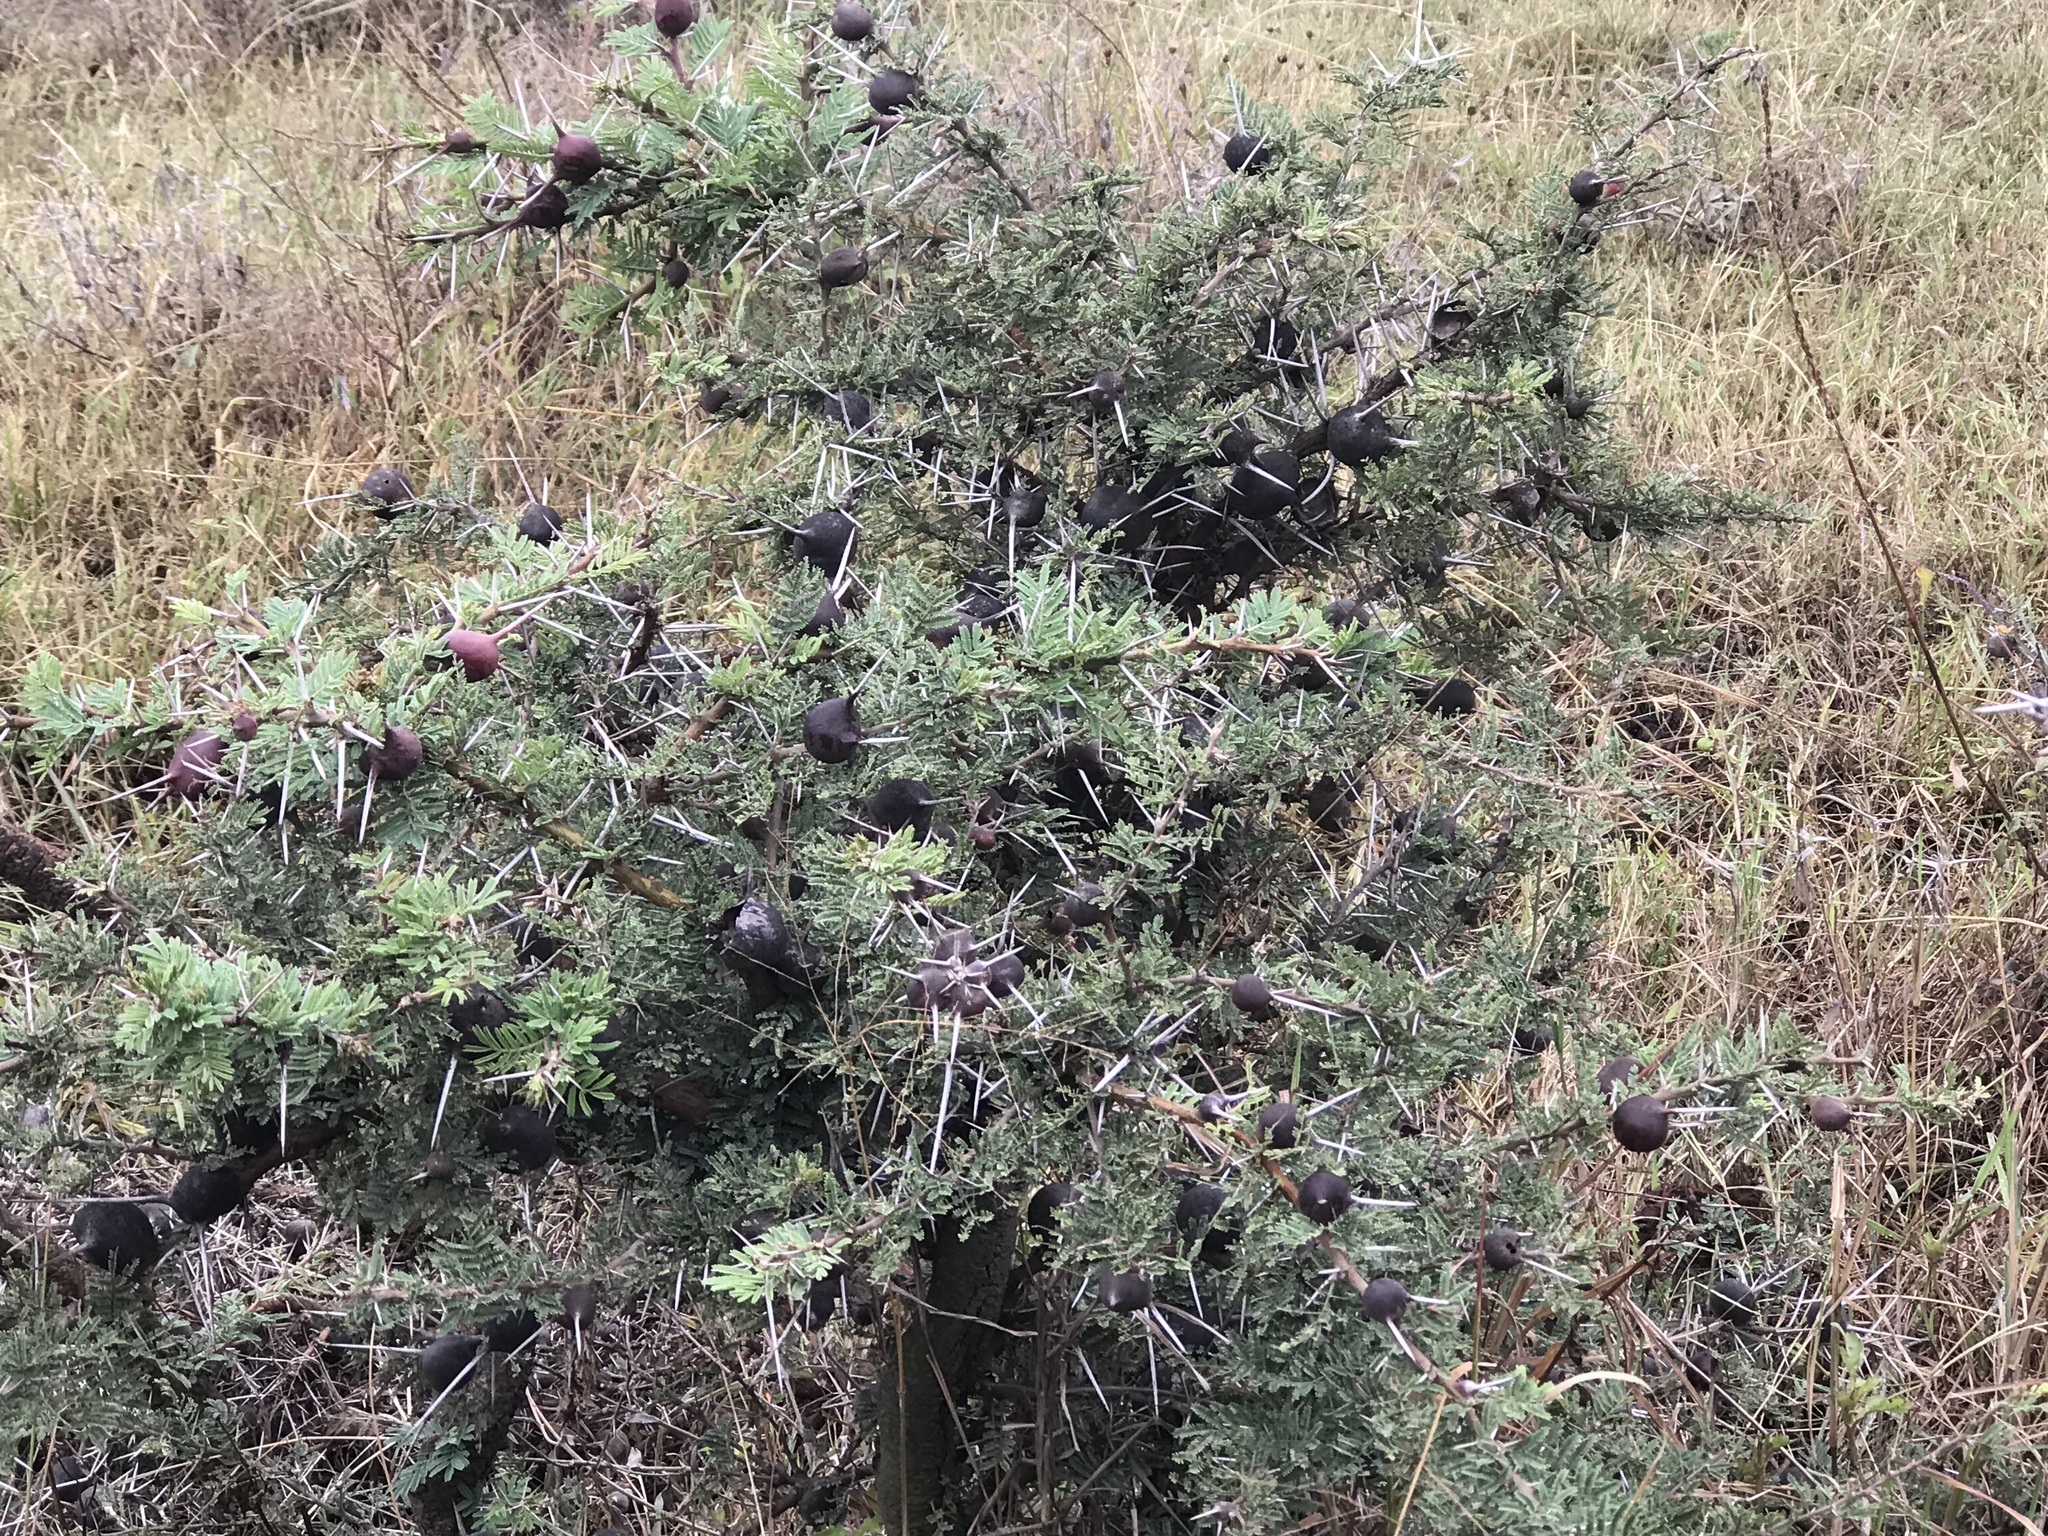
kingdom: Plantae
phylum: Tracheophyta
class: Magnoliopsida
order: Fabales
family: Fabaceae
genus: Vachellia
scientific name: Vachellia drepanolobium
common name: Whistling thorn
